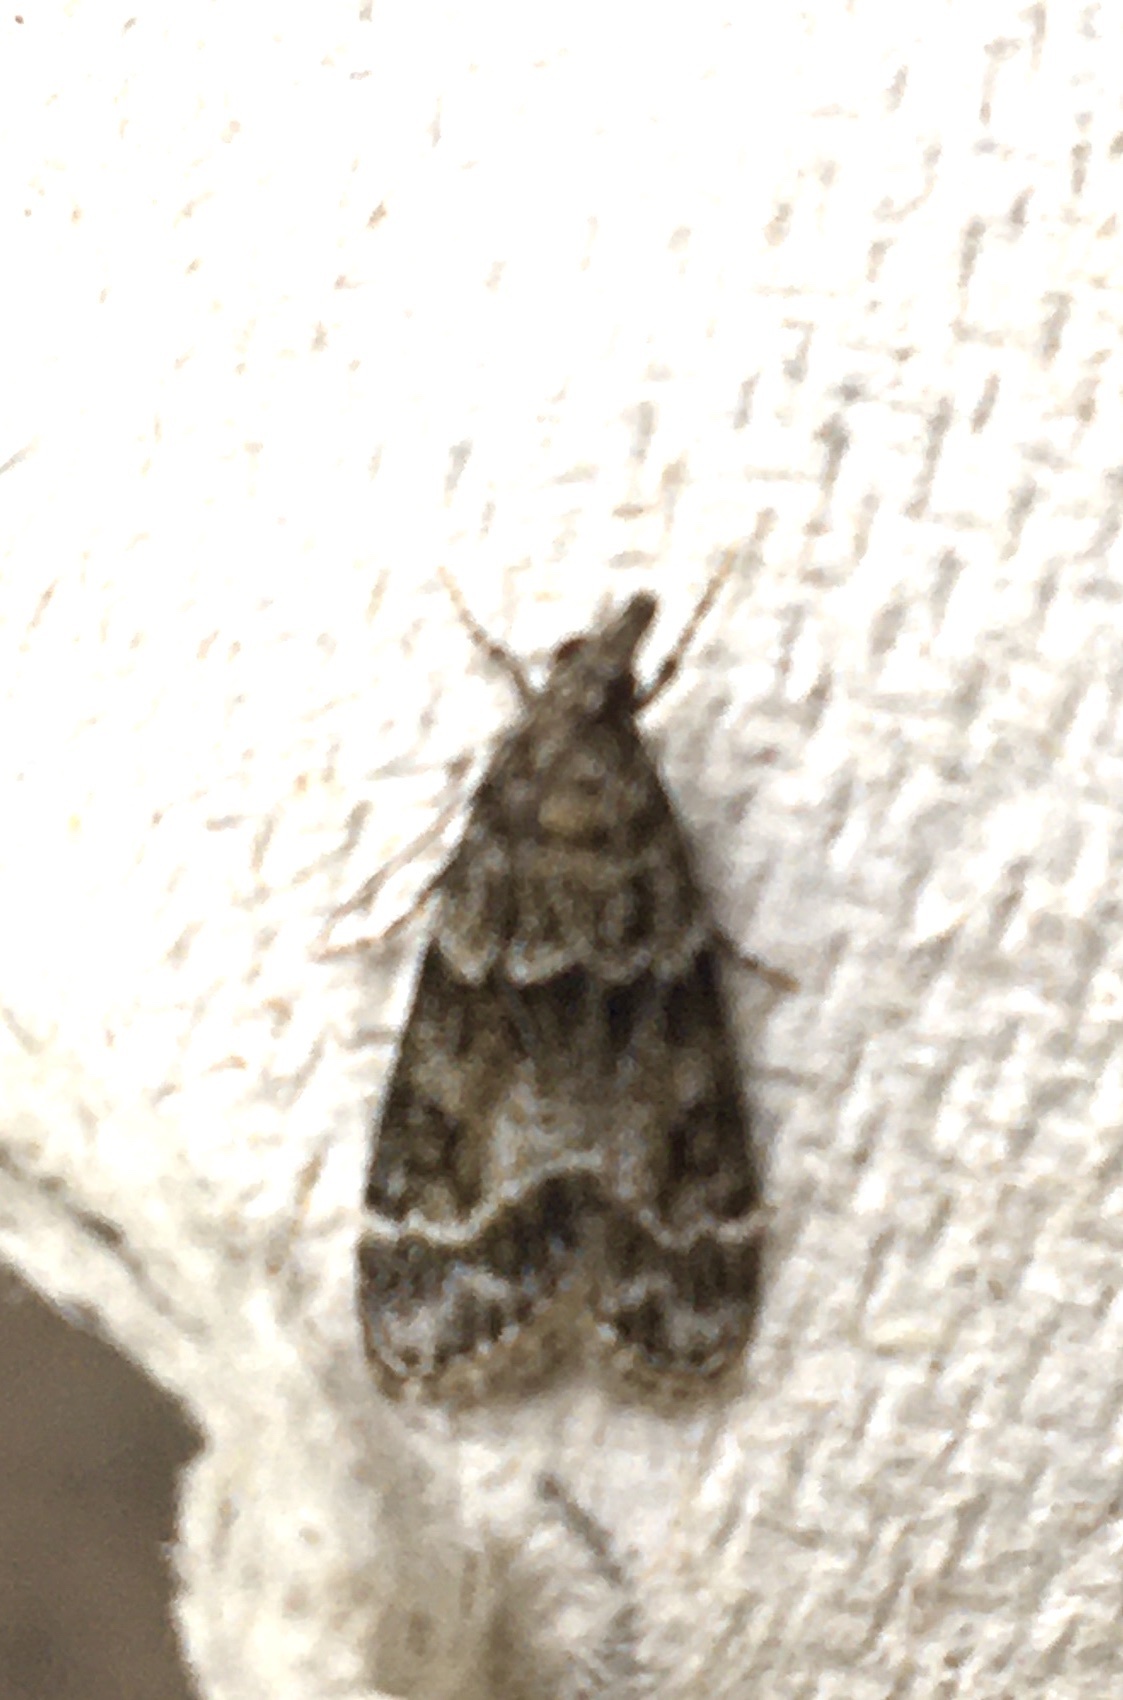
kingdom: Animalia
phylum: Arthropoda
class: Insecta
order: Lepidoptera
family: Crambidae
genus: Eudonia
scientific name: Eudonia mercurella
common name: Small grey
